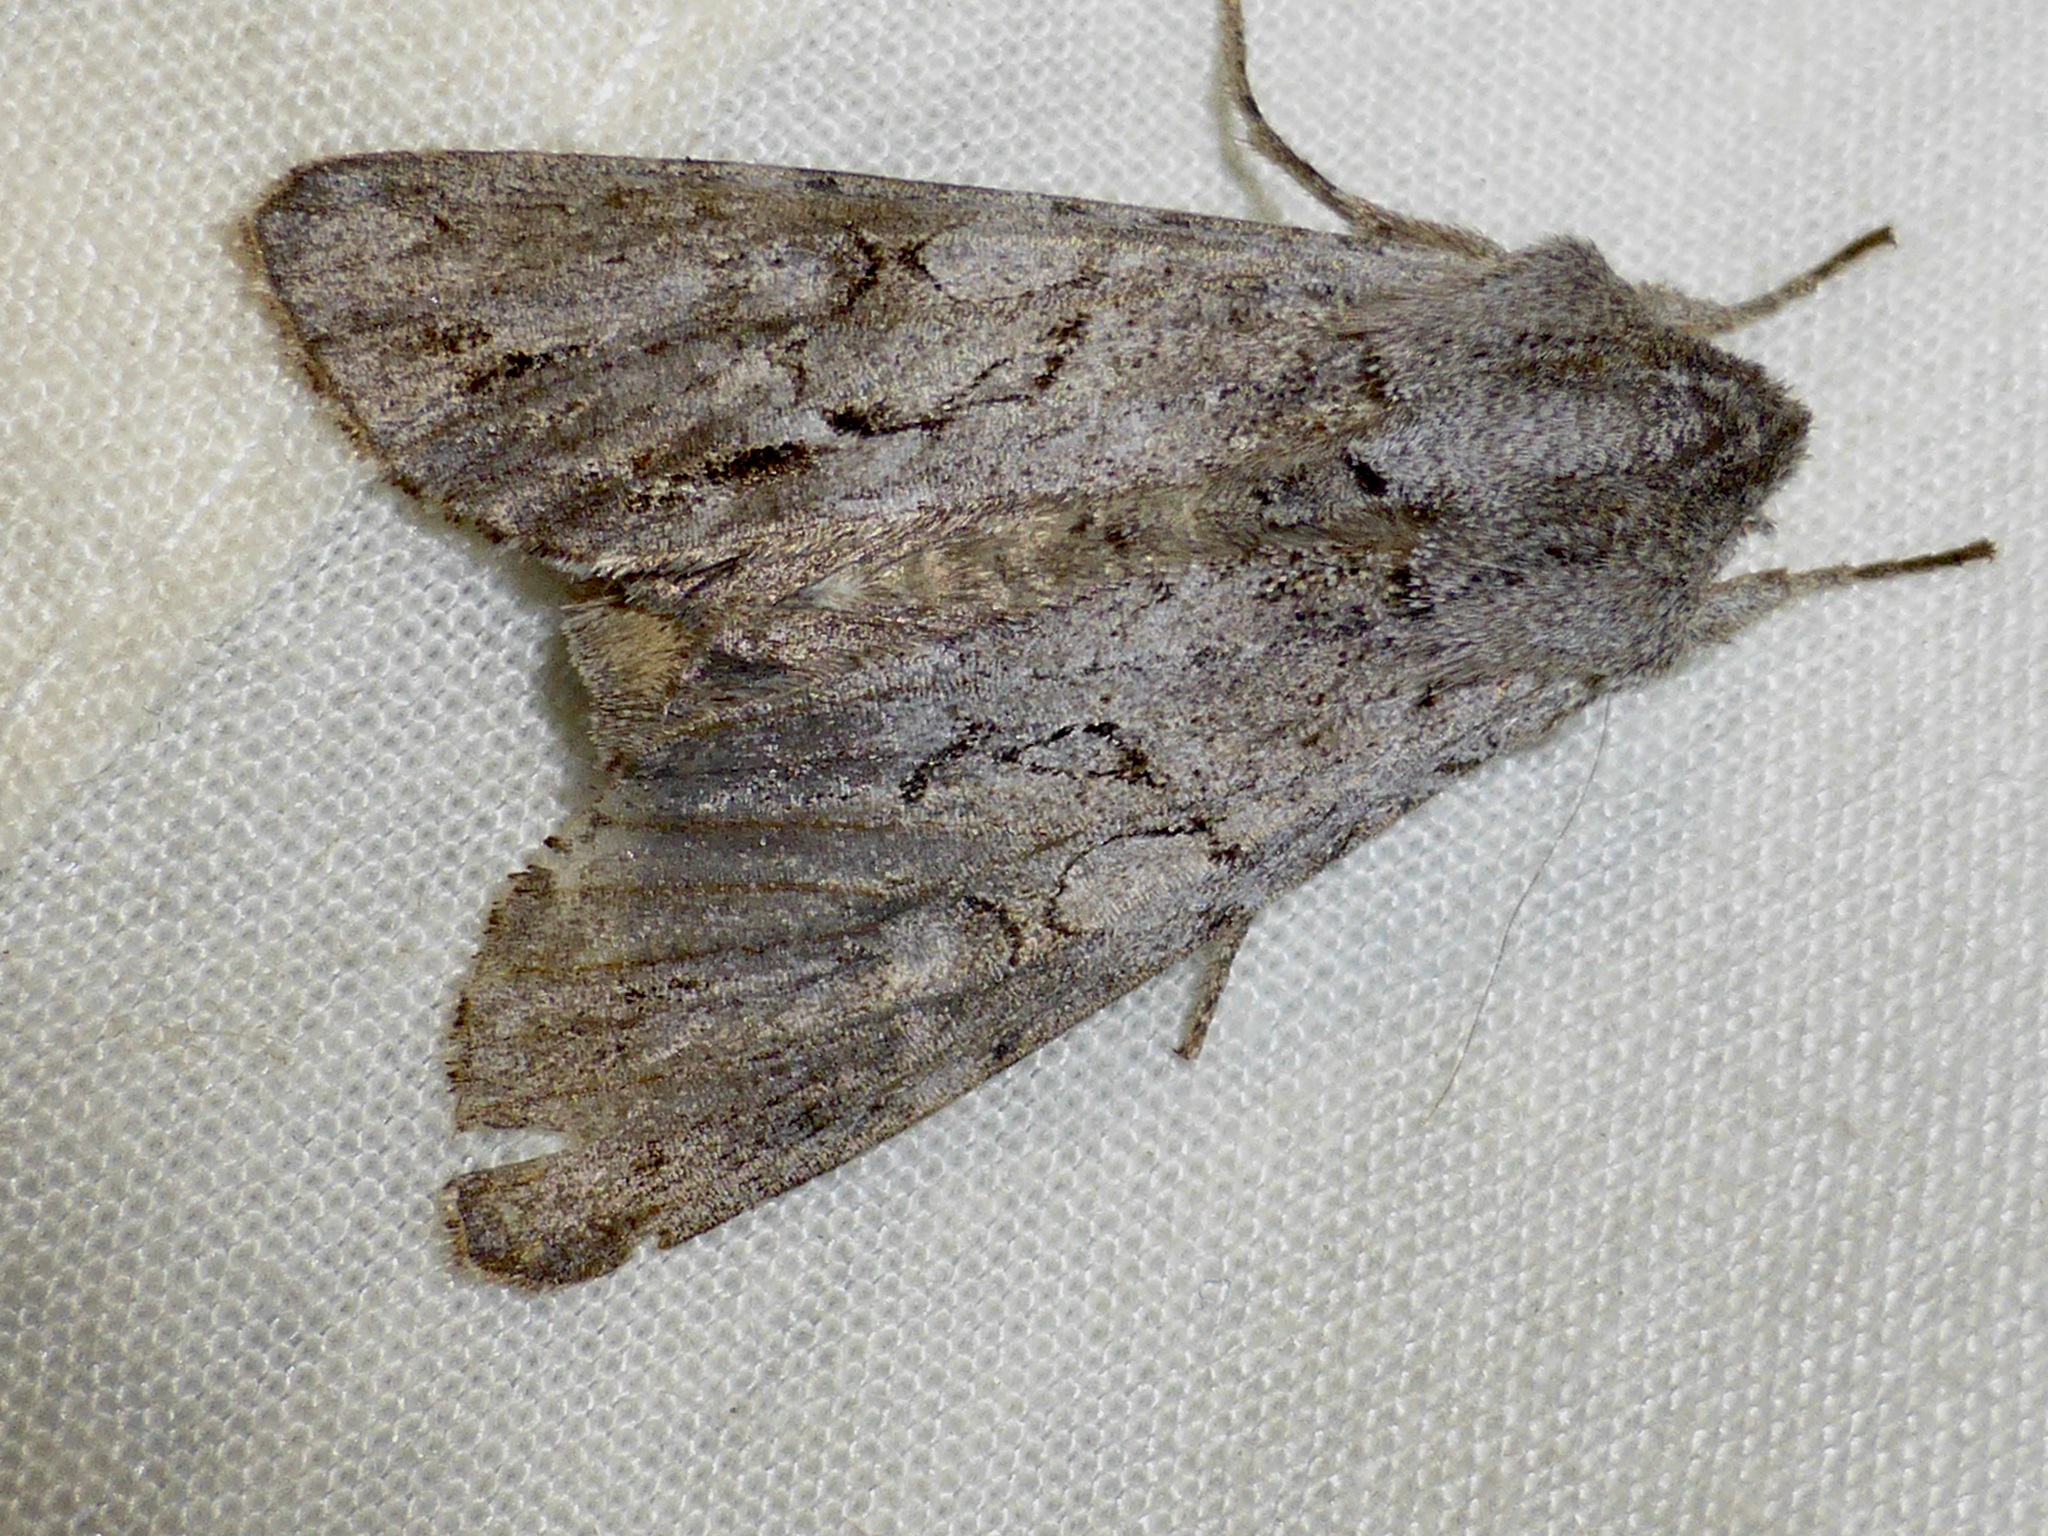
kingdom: Animalia
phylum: Arthropoda
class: Insecta
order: Lepidoptera
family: Noctuidae
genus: Ichneutica
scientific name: Ichneutica
